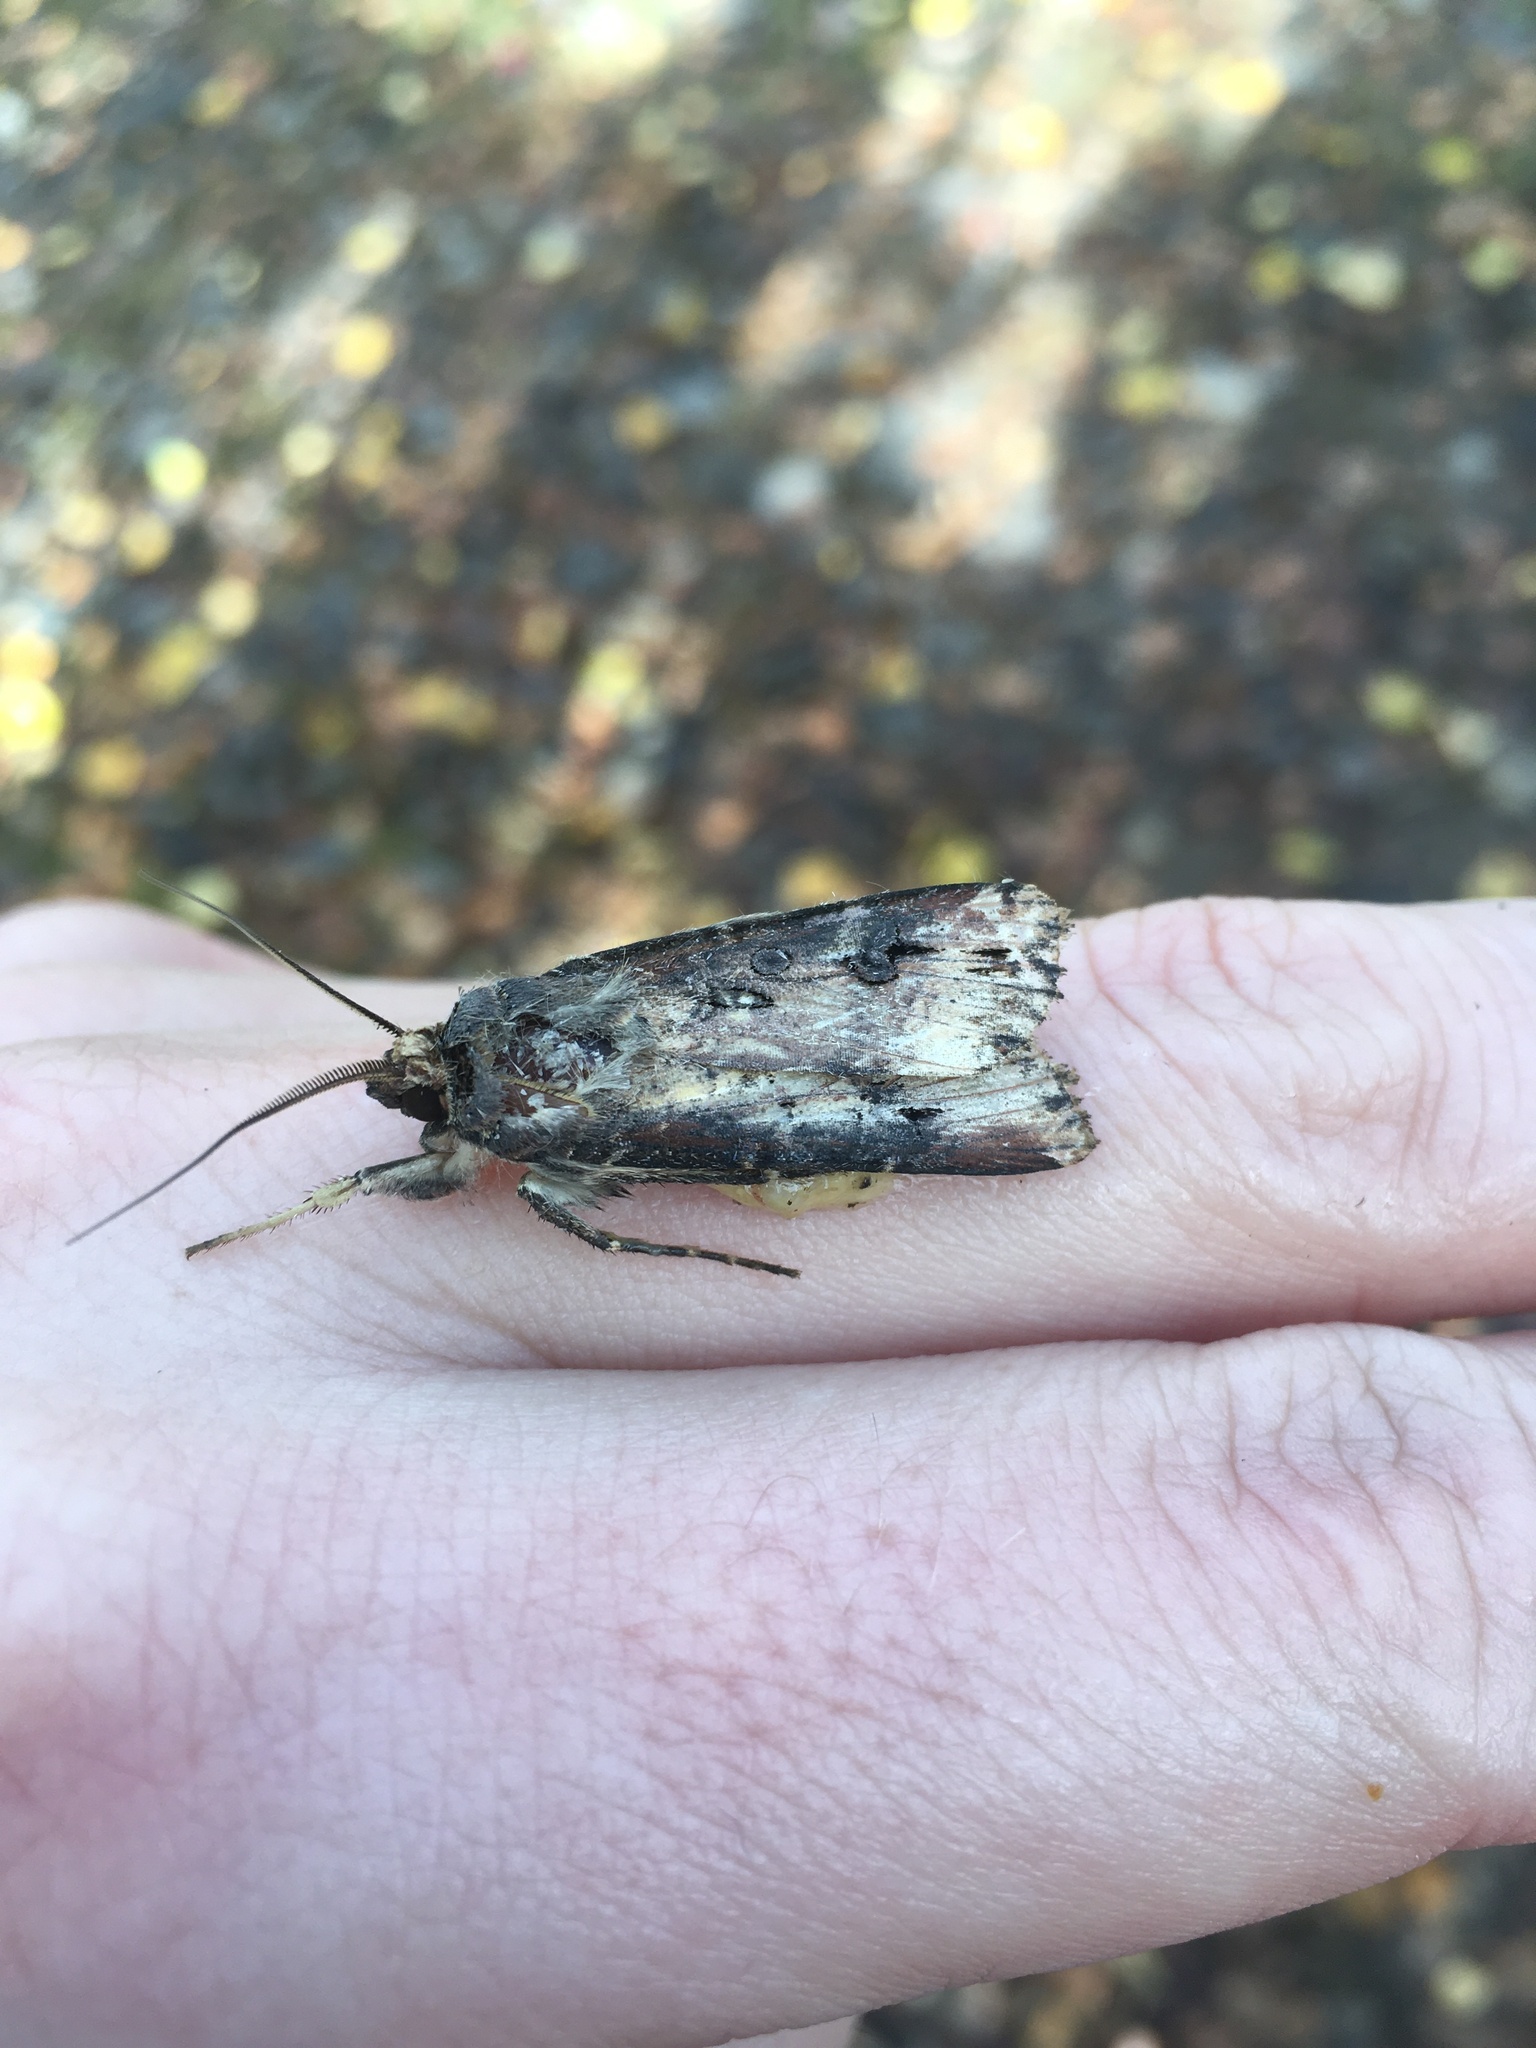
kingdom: Animalia
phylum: Arthropoda
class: Insecta
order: Lepidoptera
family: Noctuidae
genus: Agrotis
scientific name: Agrotis ipsilon
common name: Dark sword-grass
